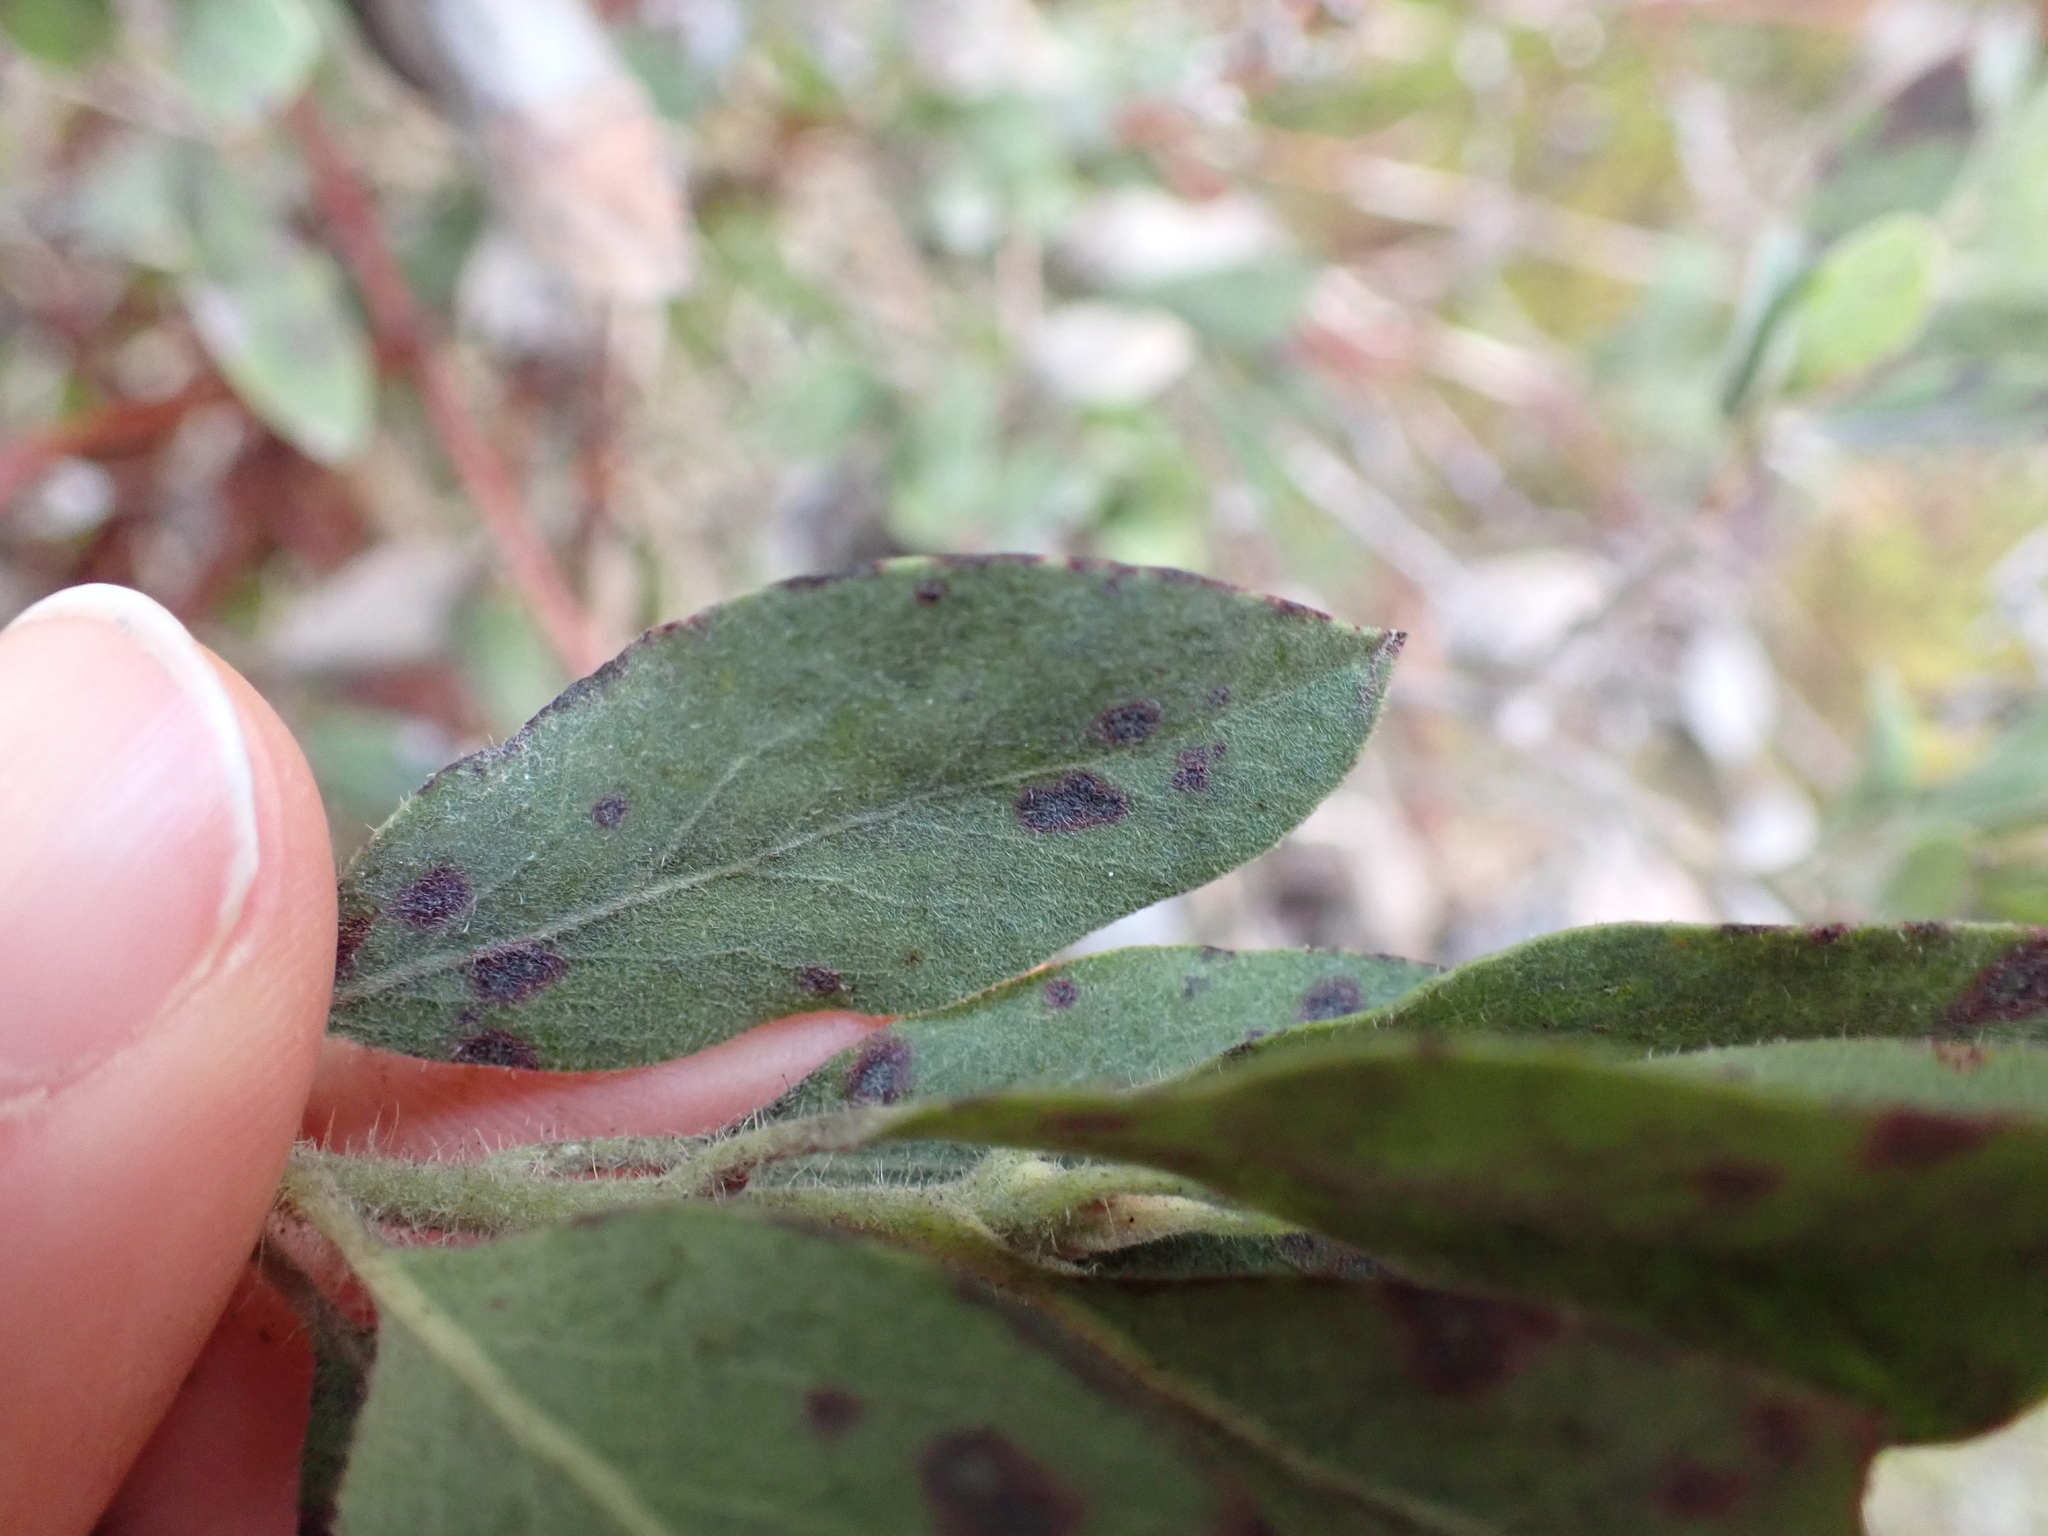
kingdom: Plantae
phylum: Tracheophyta
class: Magnoliopsida
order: Ericales
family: Ericaceae
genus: Arctostaphylos
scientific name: Arctostaphylos columbiana
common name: Bristly bearberry
